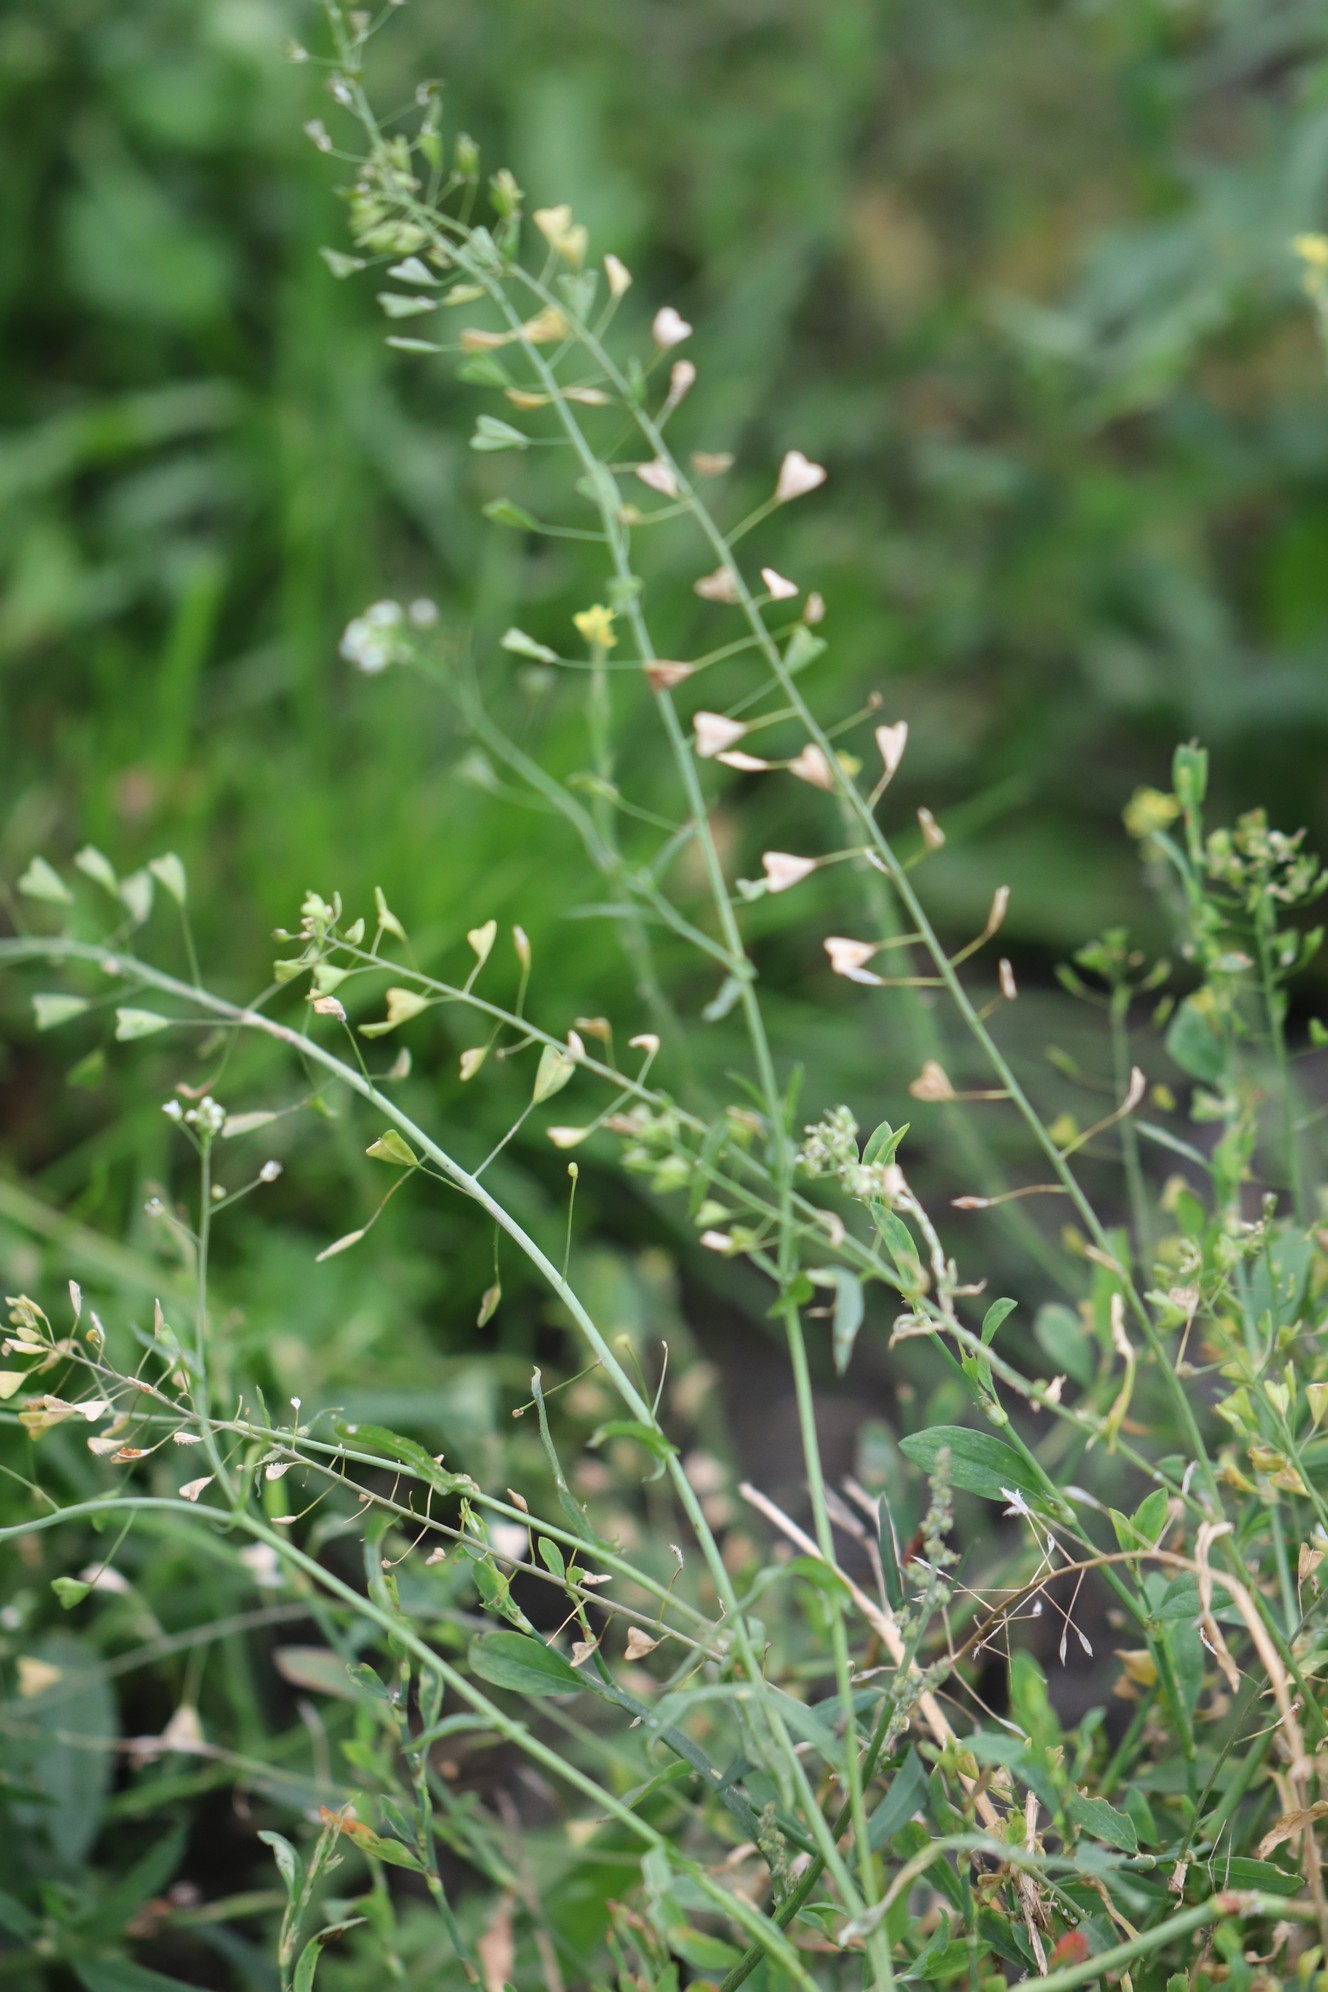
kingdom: Plantae
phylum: Tracheophyta
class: Magnoliopsida
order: Brassicales
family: Brassicaceae
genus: Capsella
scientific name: Capsella bursa-pastoris
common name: Shepherd's purse
